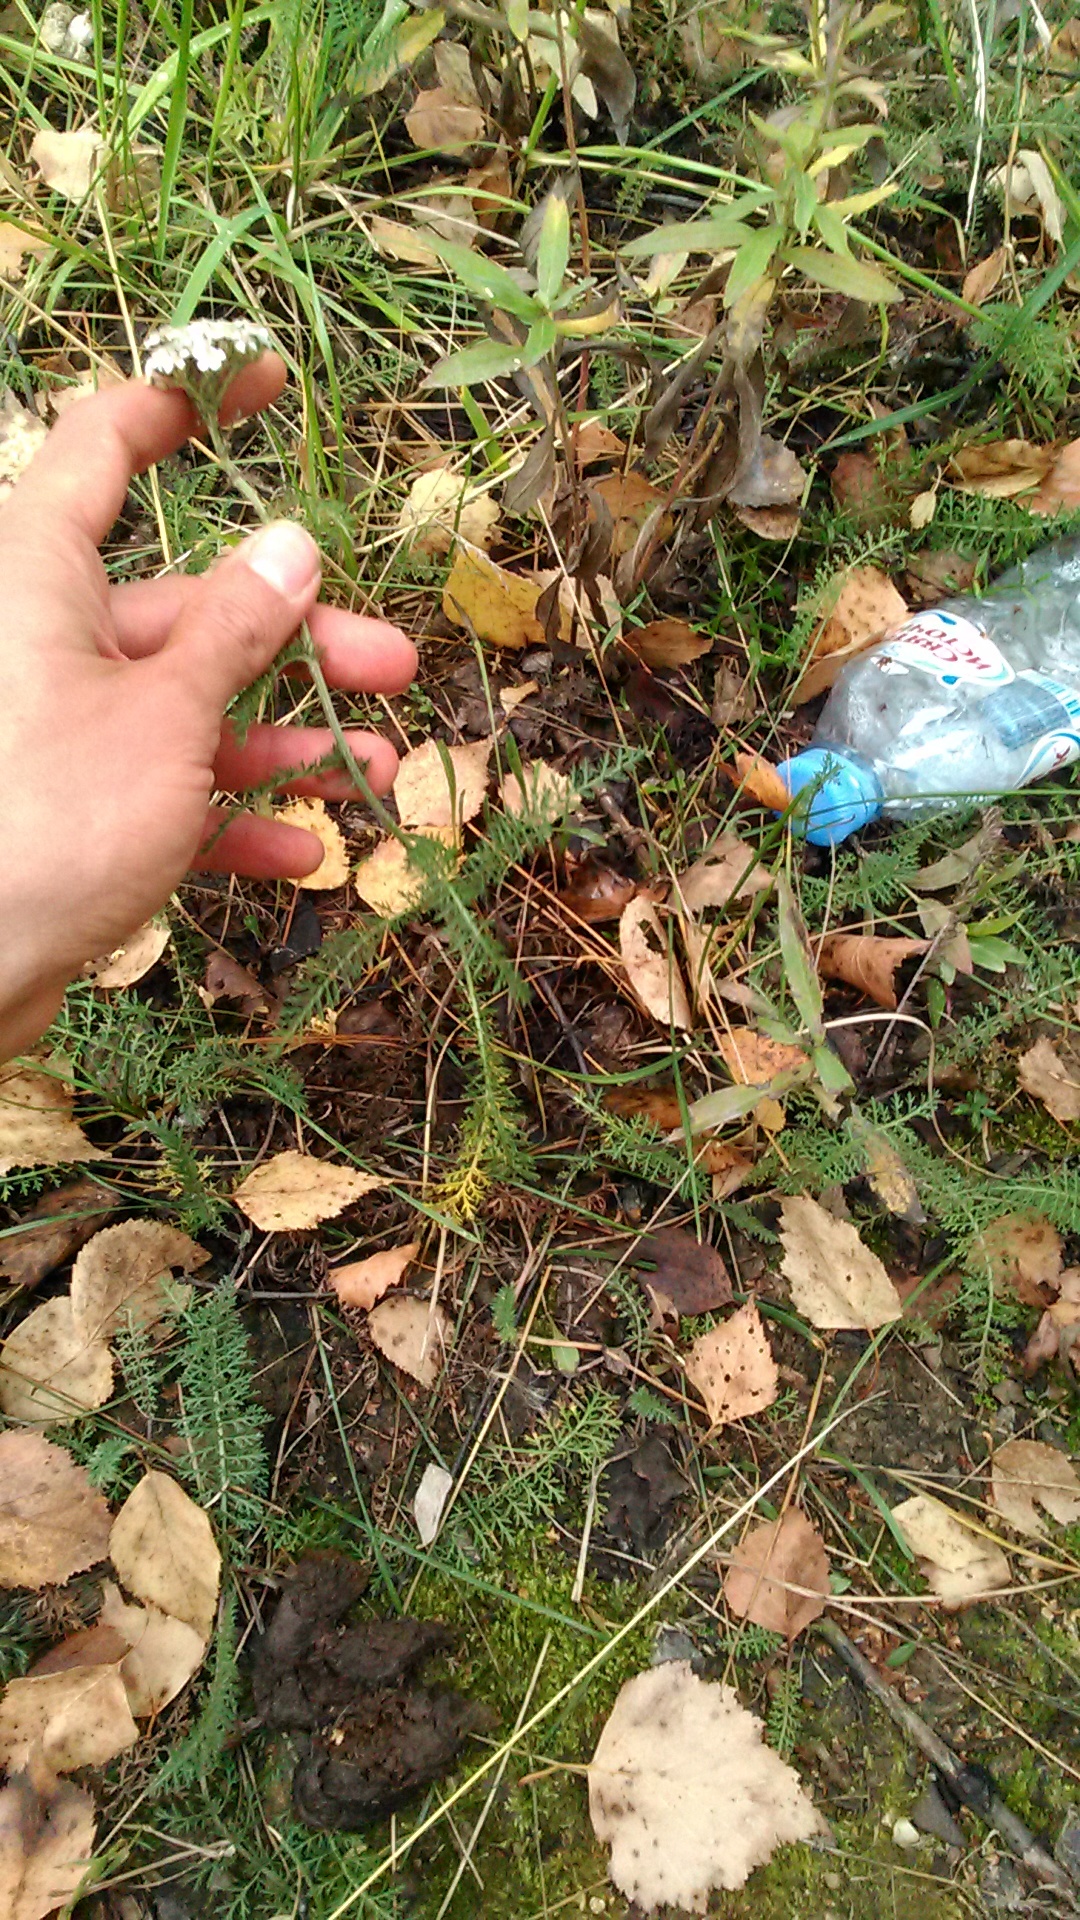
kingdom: Plantae
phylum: Tracheophyta
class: Magnoliopsida
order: Asterales
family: Asteraceae
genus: Achillea
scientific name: Achillea millefolium
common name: Yarrow
